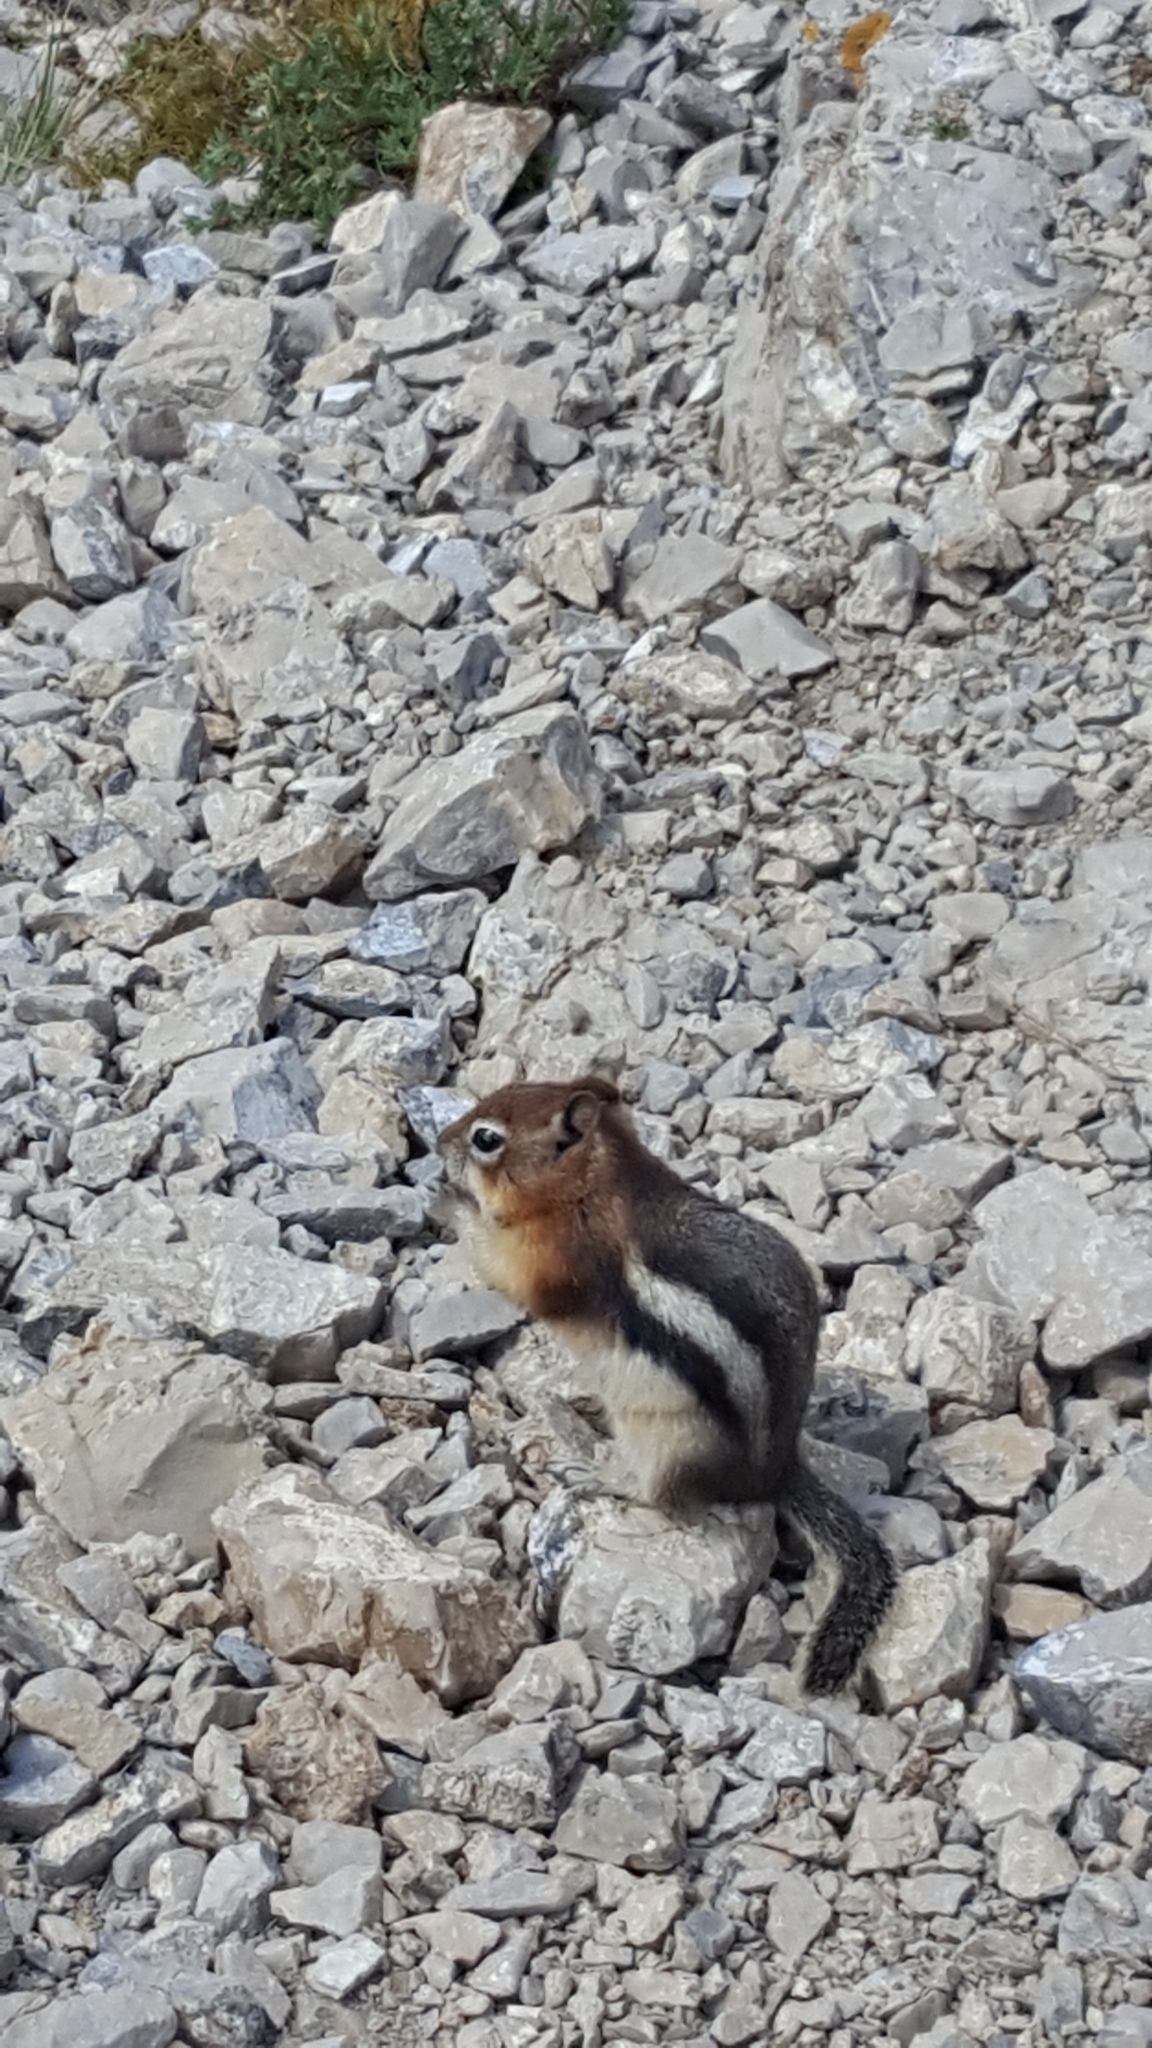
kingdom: Animalia
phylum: Chordata
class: Mammalia
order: Rodentia
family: Sciuridae
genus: Callospermophilus
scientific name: Callospermophilus lateralis
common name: Golden-mantled ground squirrel
